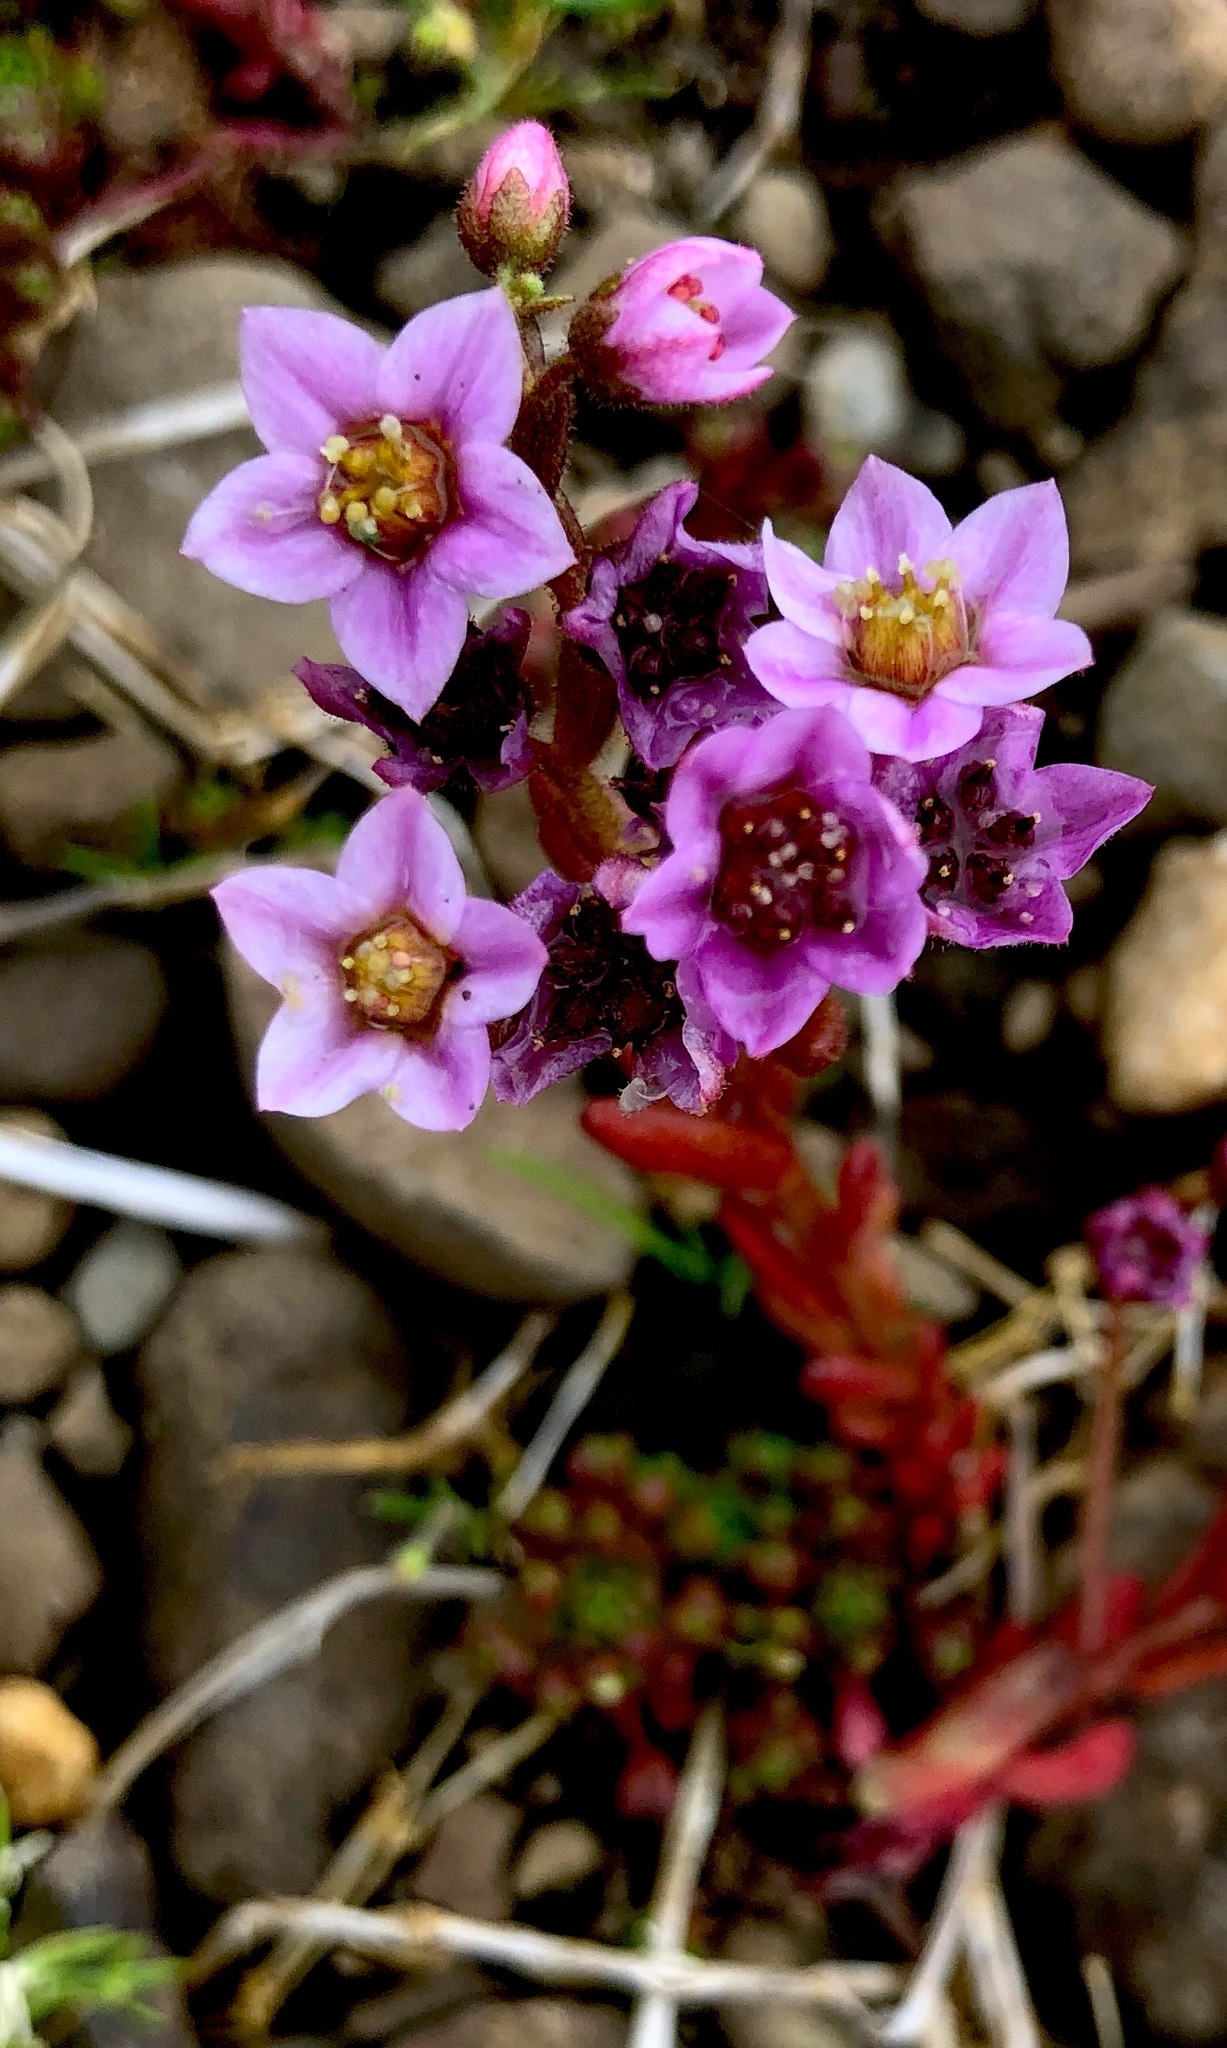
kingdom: Plantae
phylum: Tracheophyta
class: Magnoliopsida
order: Saxifragales
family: Crassulaceae
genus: Sedum
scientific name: Sedum villosum
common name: Hairy stonecrop
